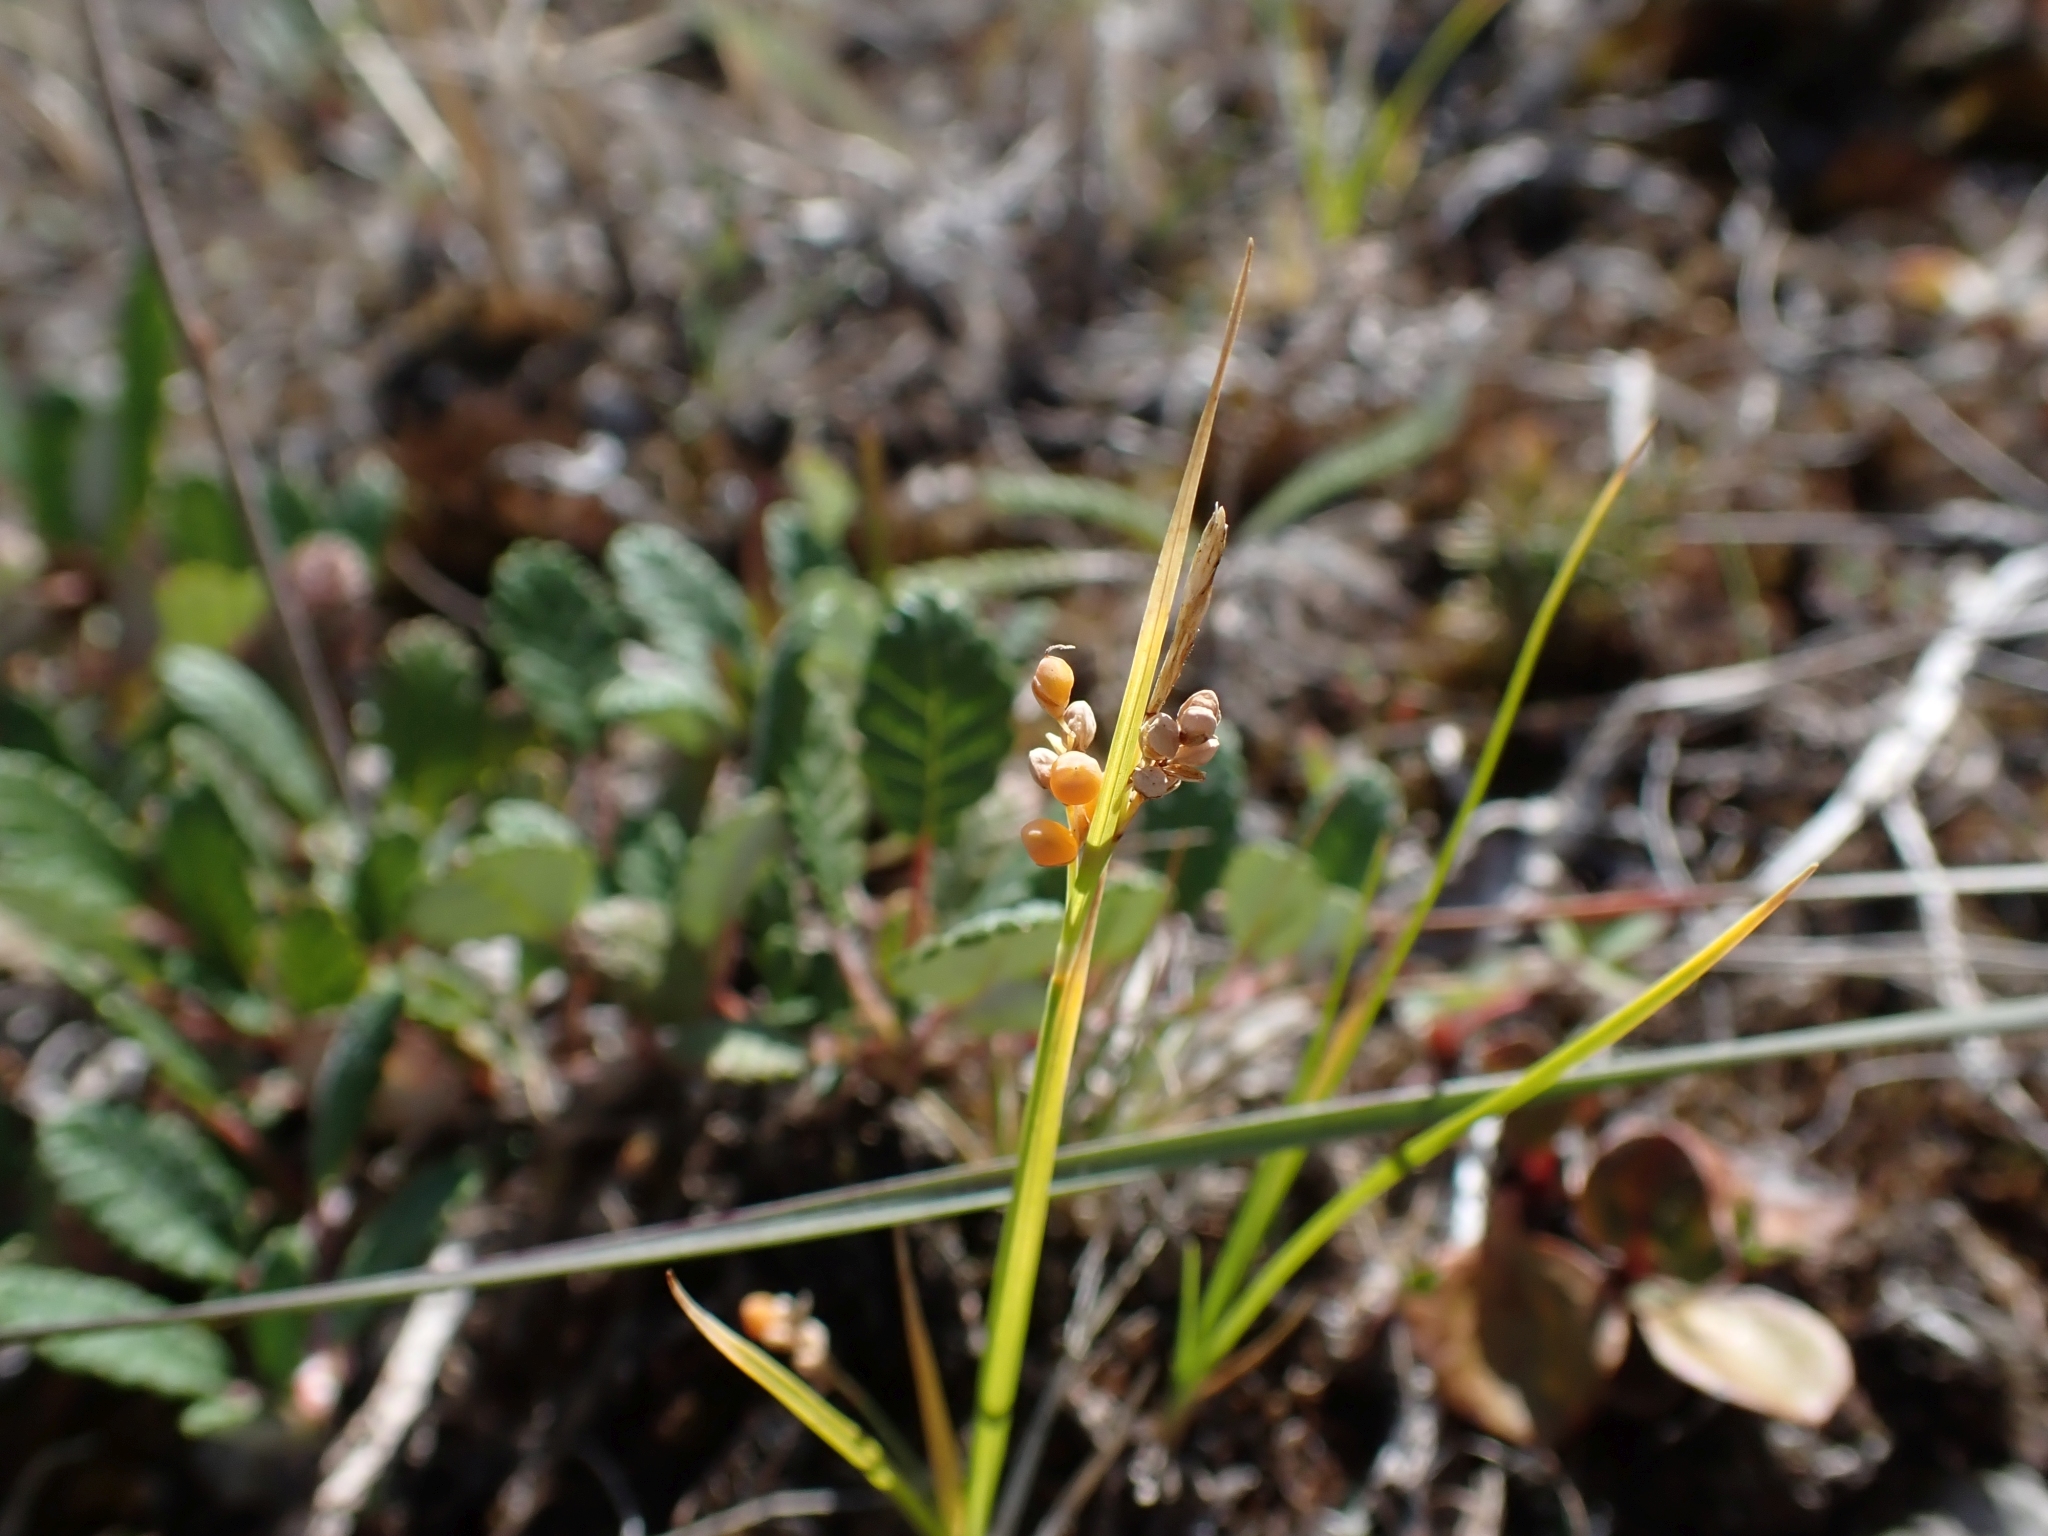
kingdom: Plantae
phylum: Tracheophyta
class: Liliopsida
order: Poales
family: Cyperaceae
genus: Carex
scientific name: Carex aurea
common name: Golden sedge
